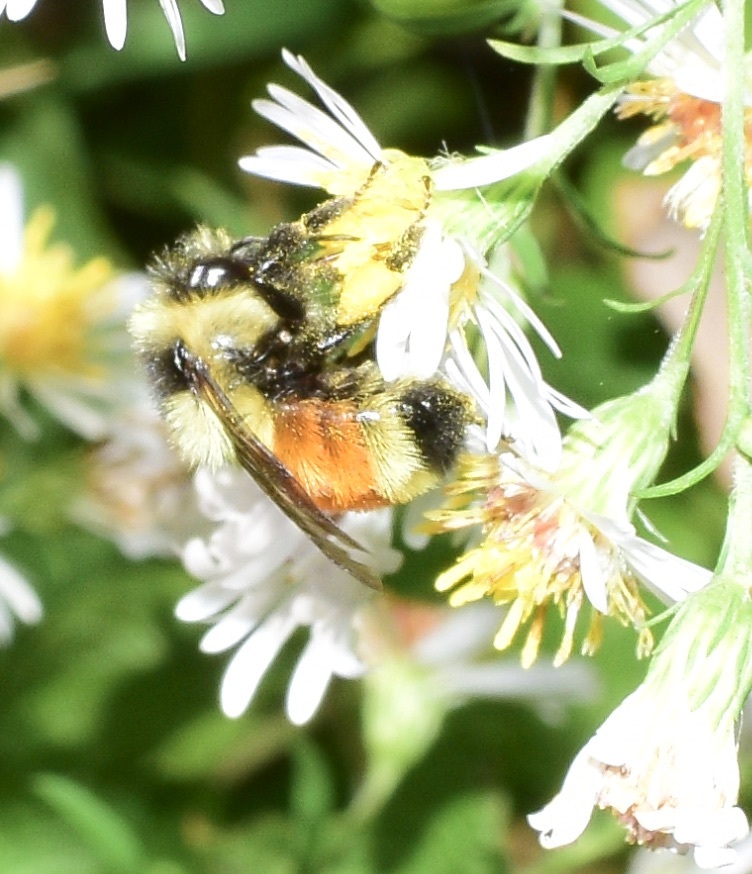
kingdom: Animalia
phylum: Arthropoda
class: Insecta
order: Hymenoptera
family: Apidae
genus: Bombus
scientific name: Bombus ternarius
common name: Tri-colored bumble bee
